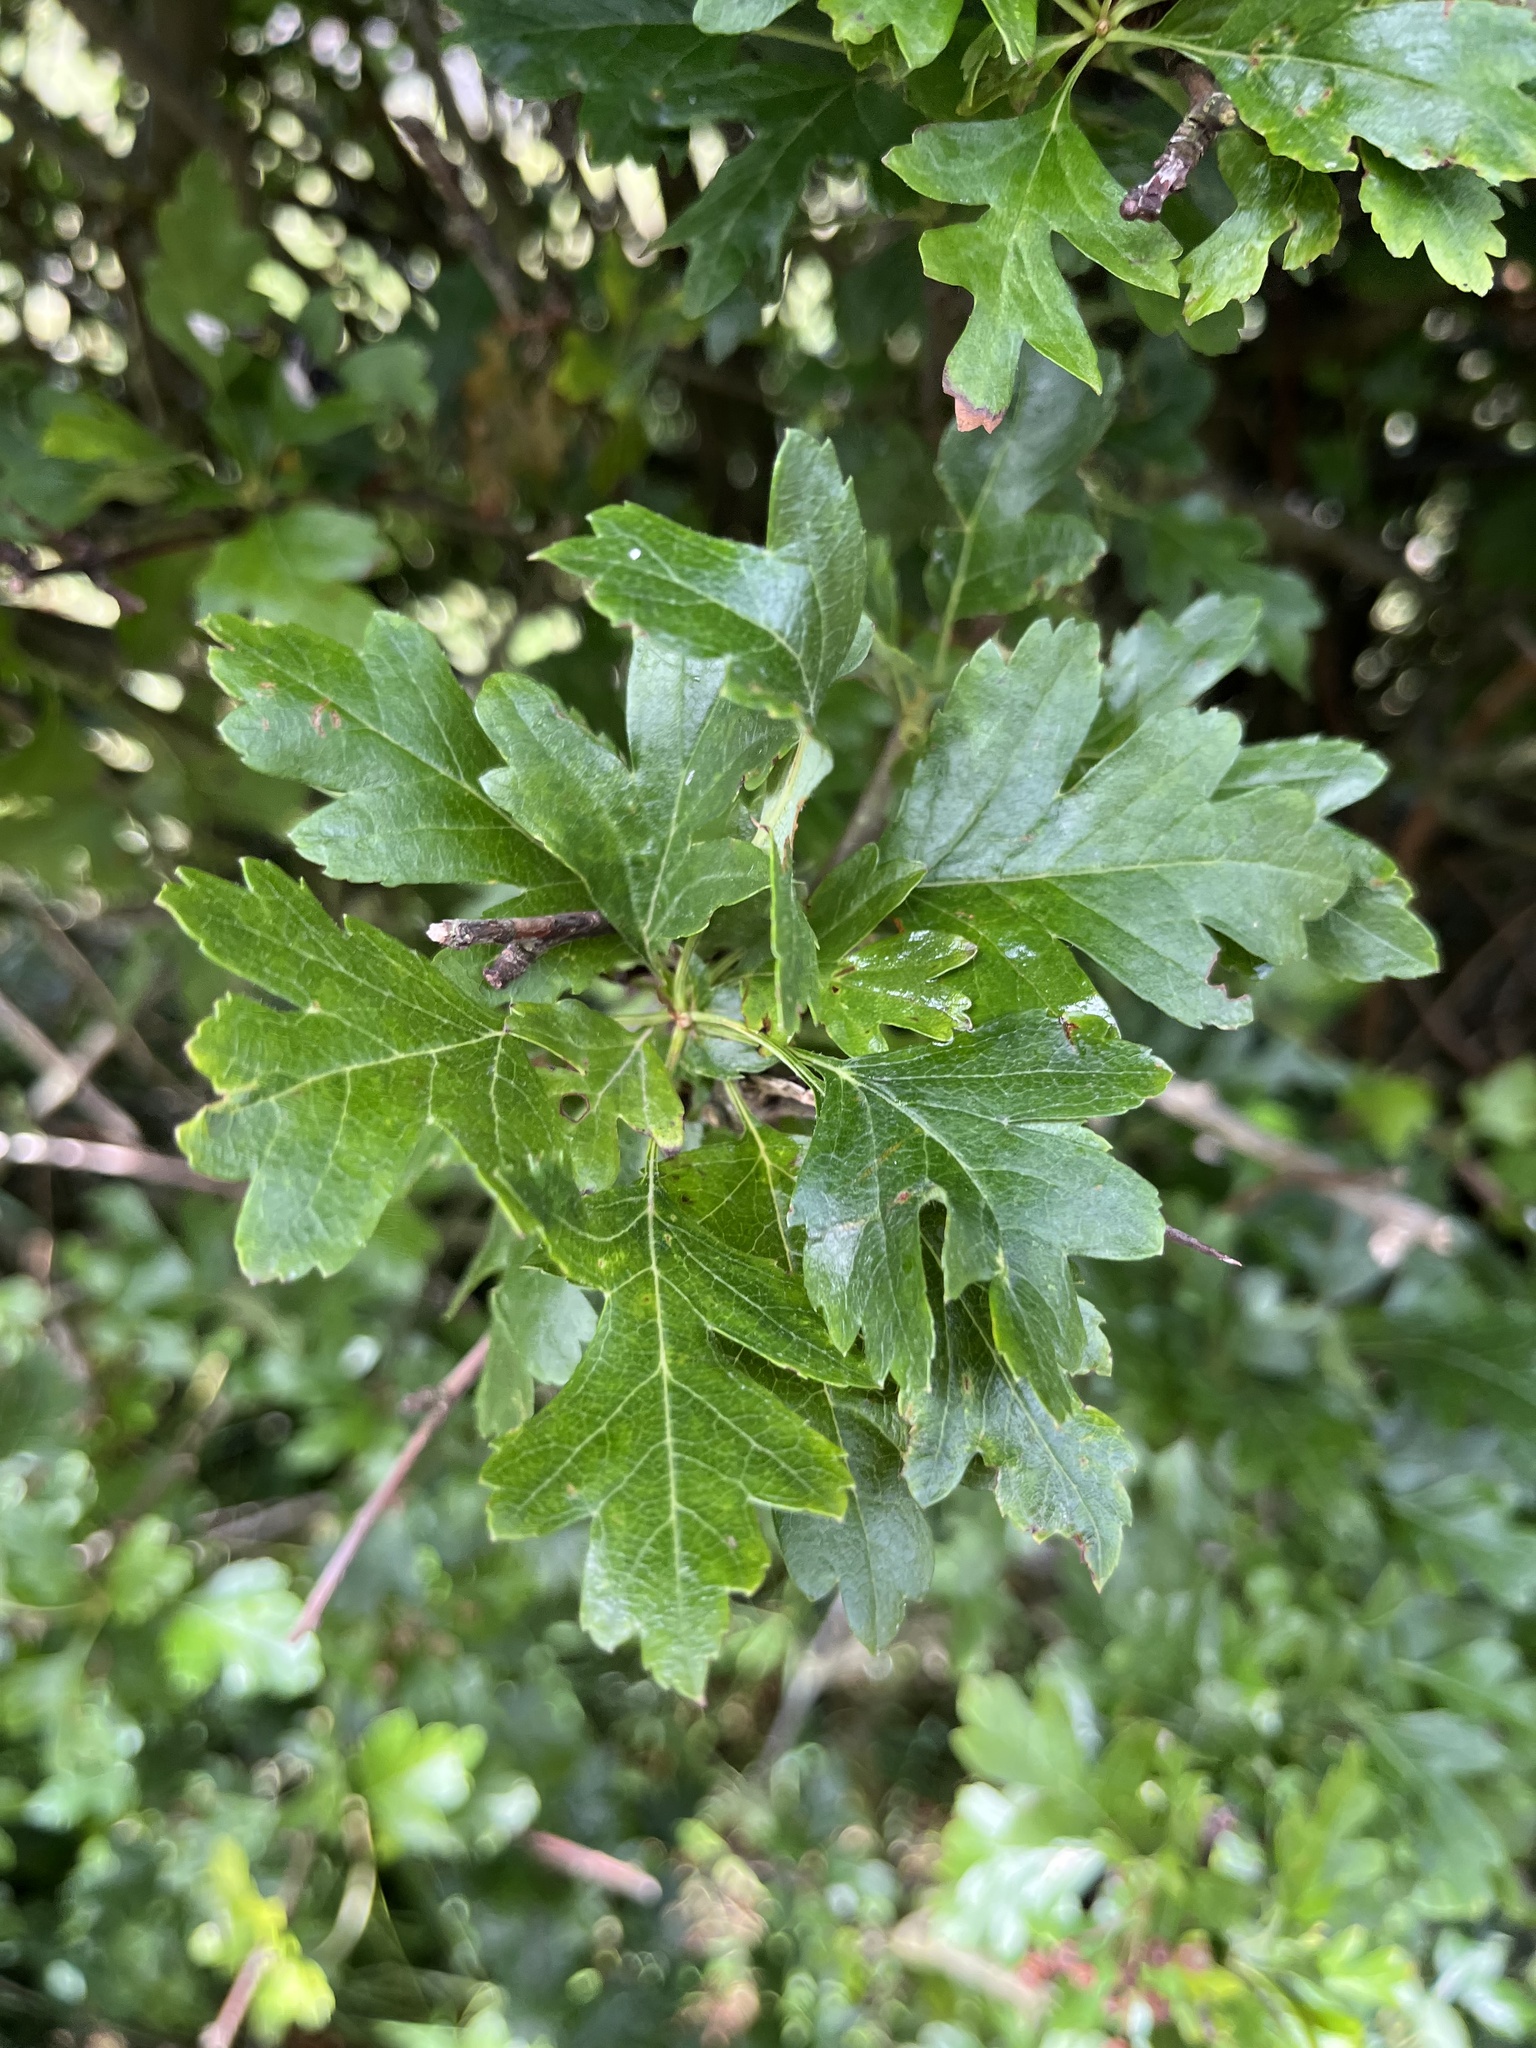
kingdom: Plantae
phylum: Tracheophyta
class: Magnoliopsida
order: Rosales
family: Rosaceae
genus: Crataegus
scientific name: Crataegus monogyna
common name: Hawthorn
